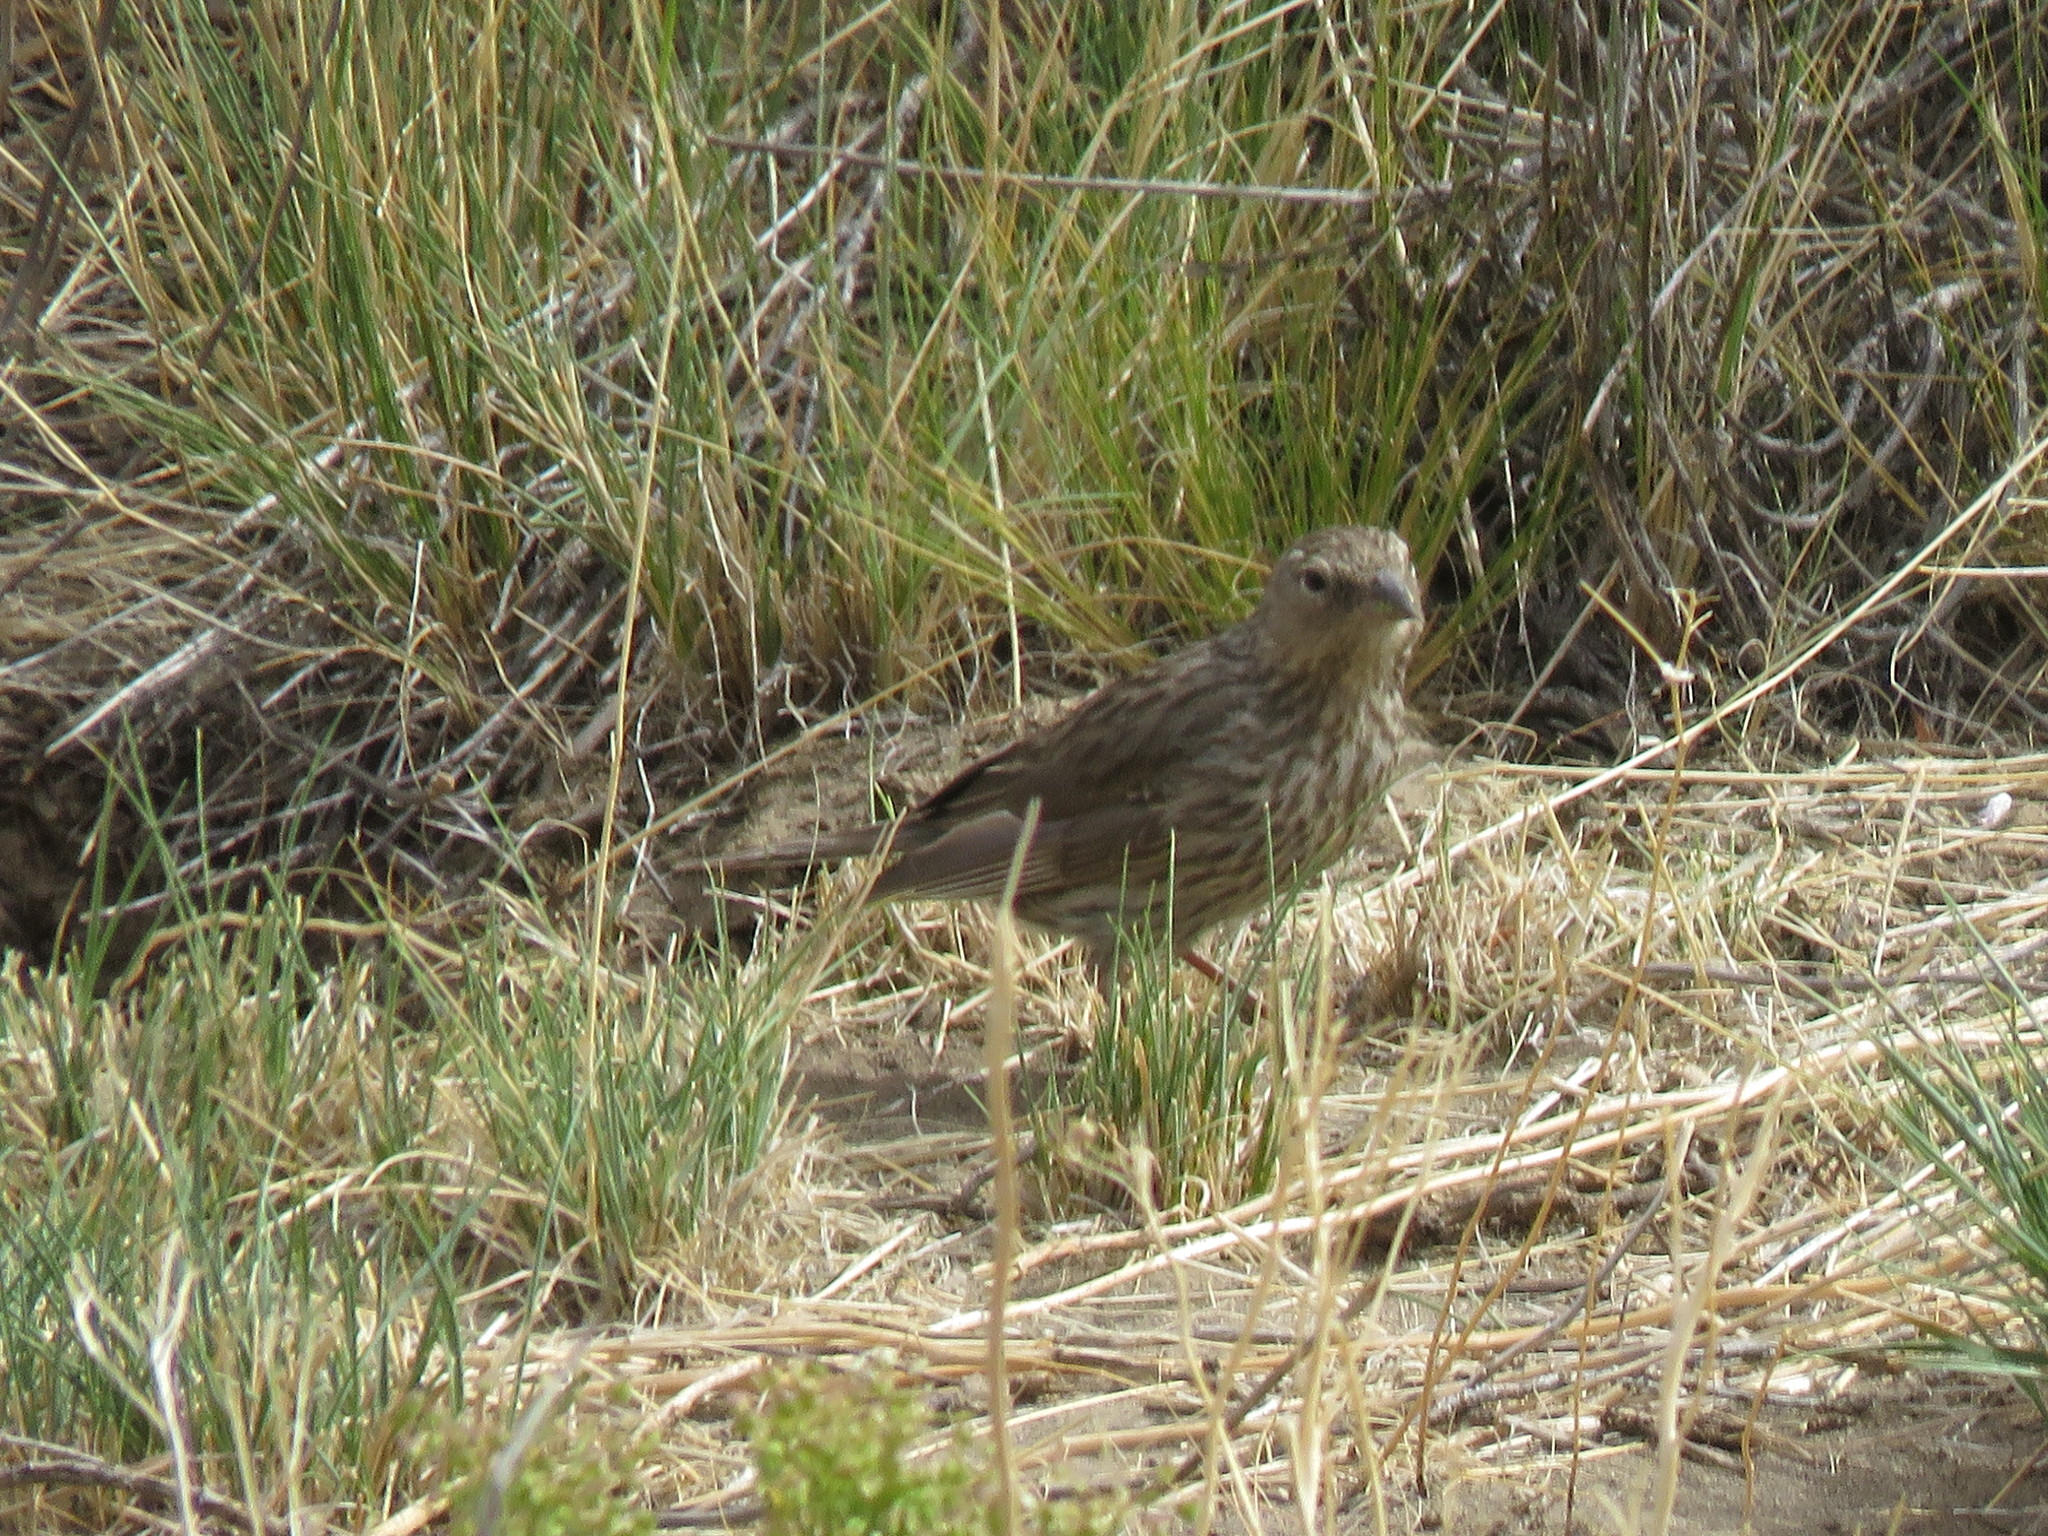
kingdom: Animalia
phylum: Chordata
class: Aves
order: Passeriformes
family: Thraupidae
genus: Geospizopsis
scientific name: Geospizopsis unicolor
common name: Plumbeous sierra-finch
